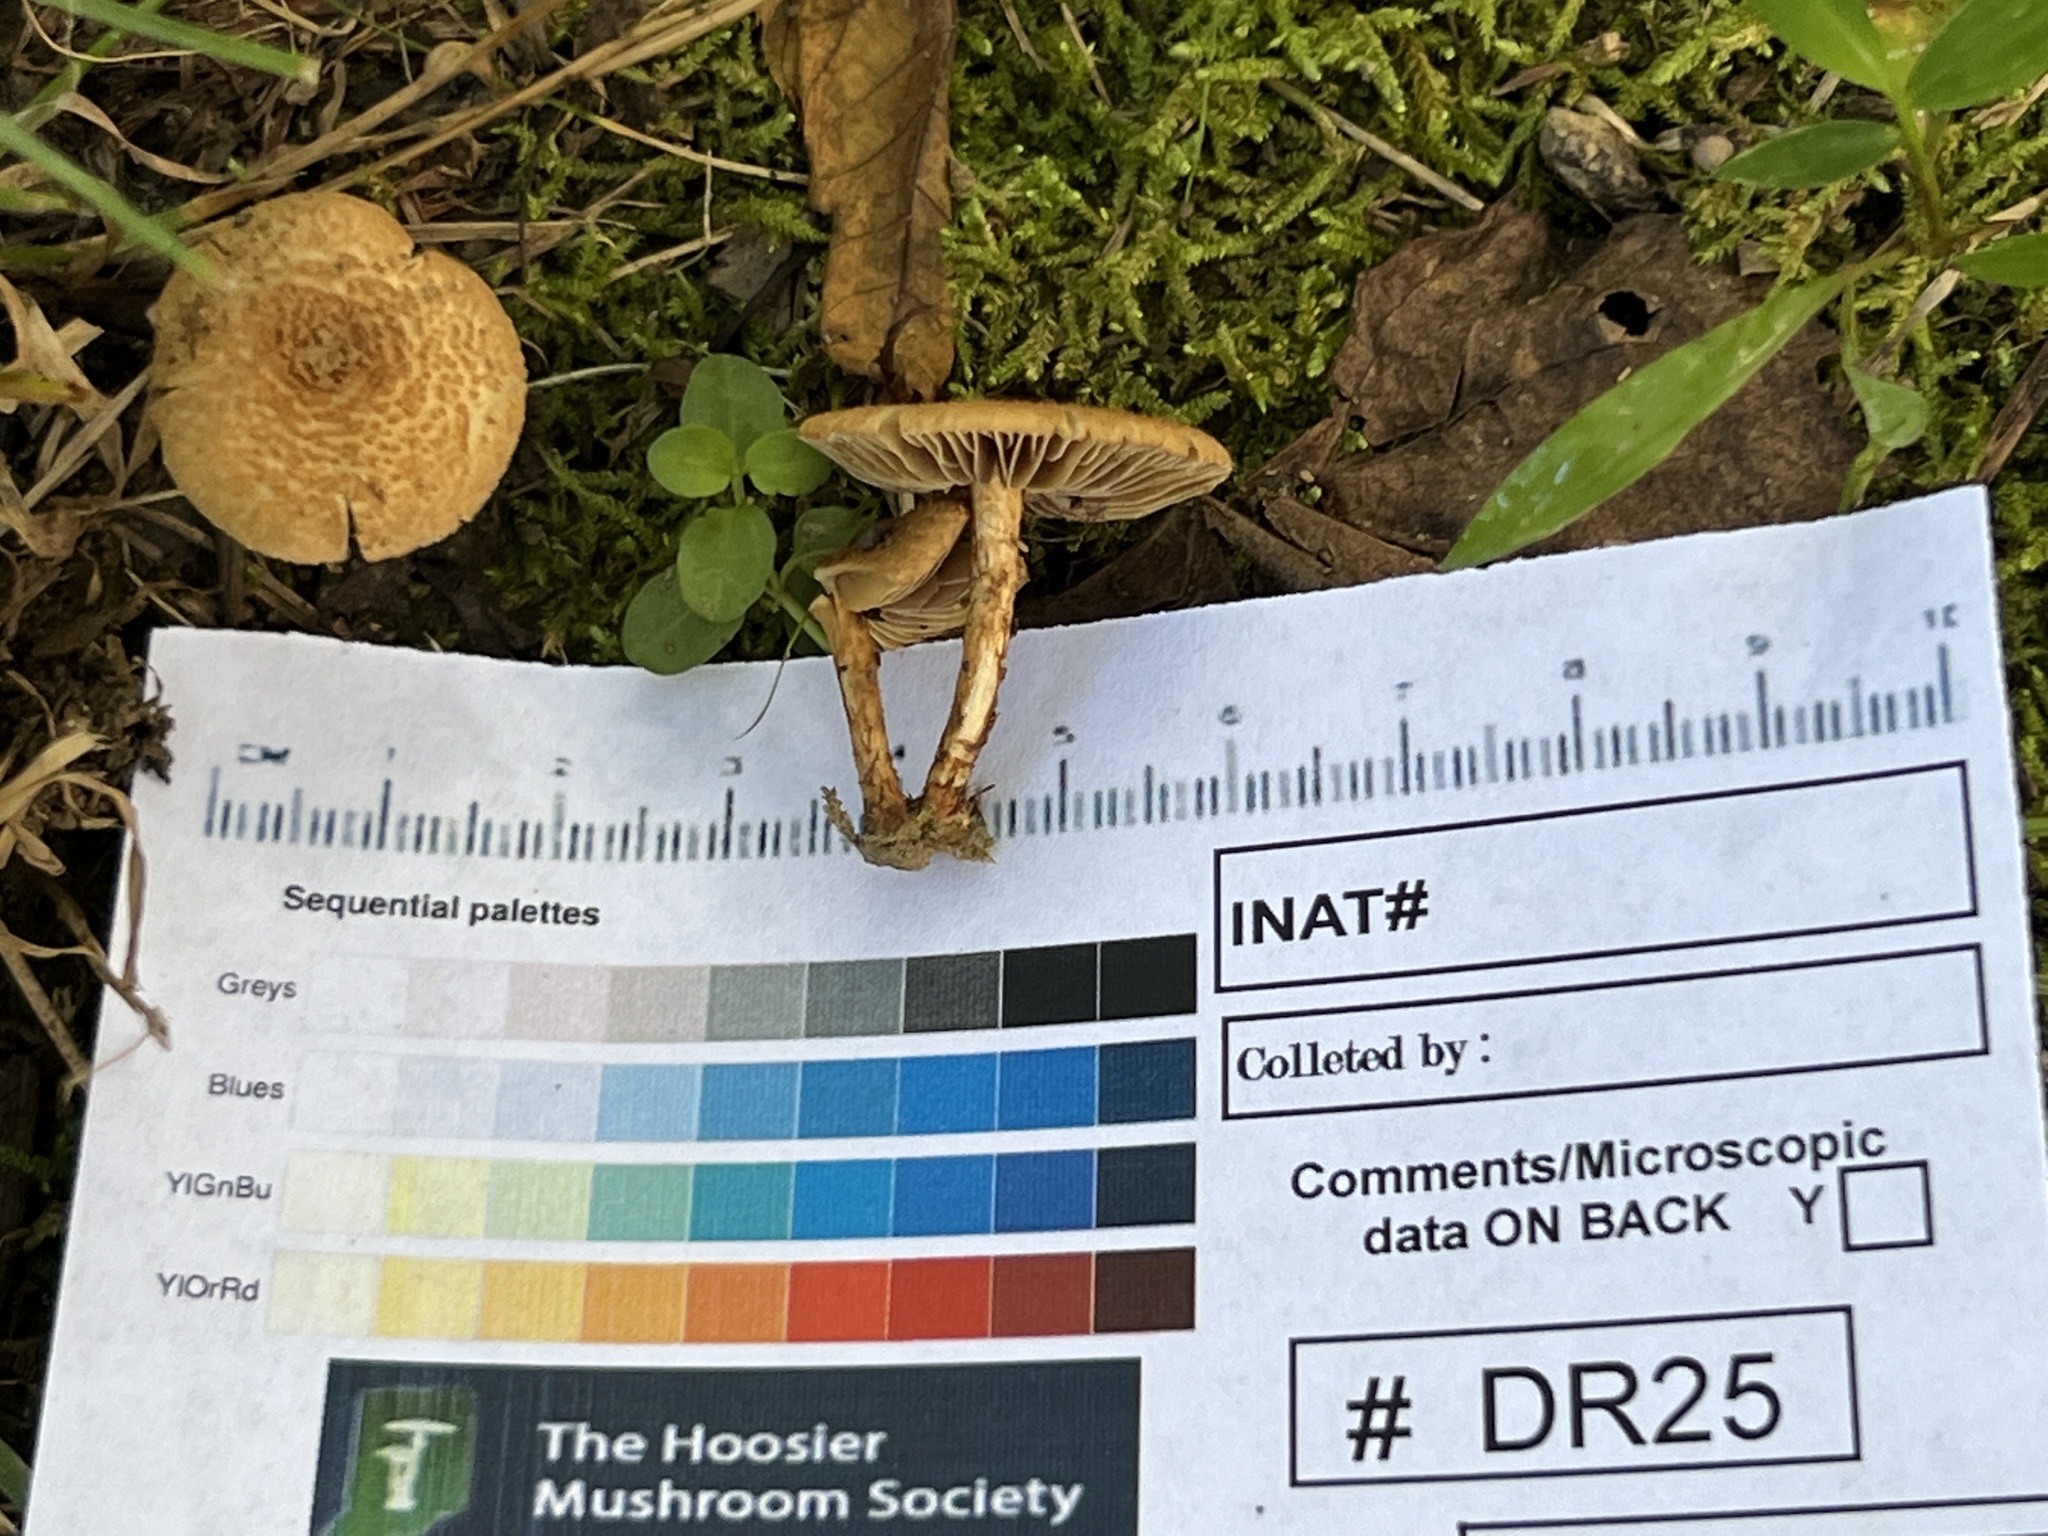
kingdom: Fungi
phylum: Basidiomycota
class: Agaricomycetes
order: Agaricales
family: Inocybaceae
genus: Mallocybe
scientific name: Mallocybe unicolor
